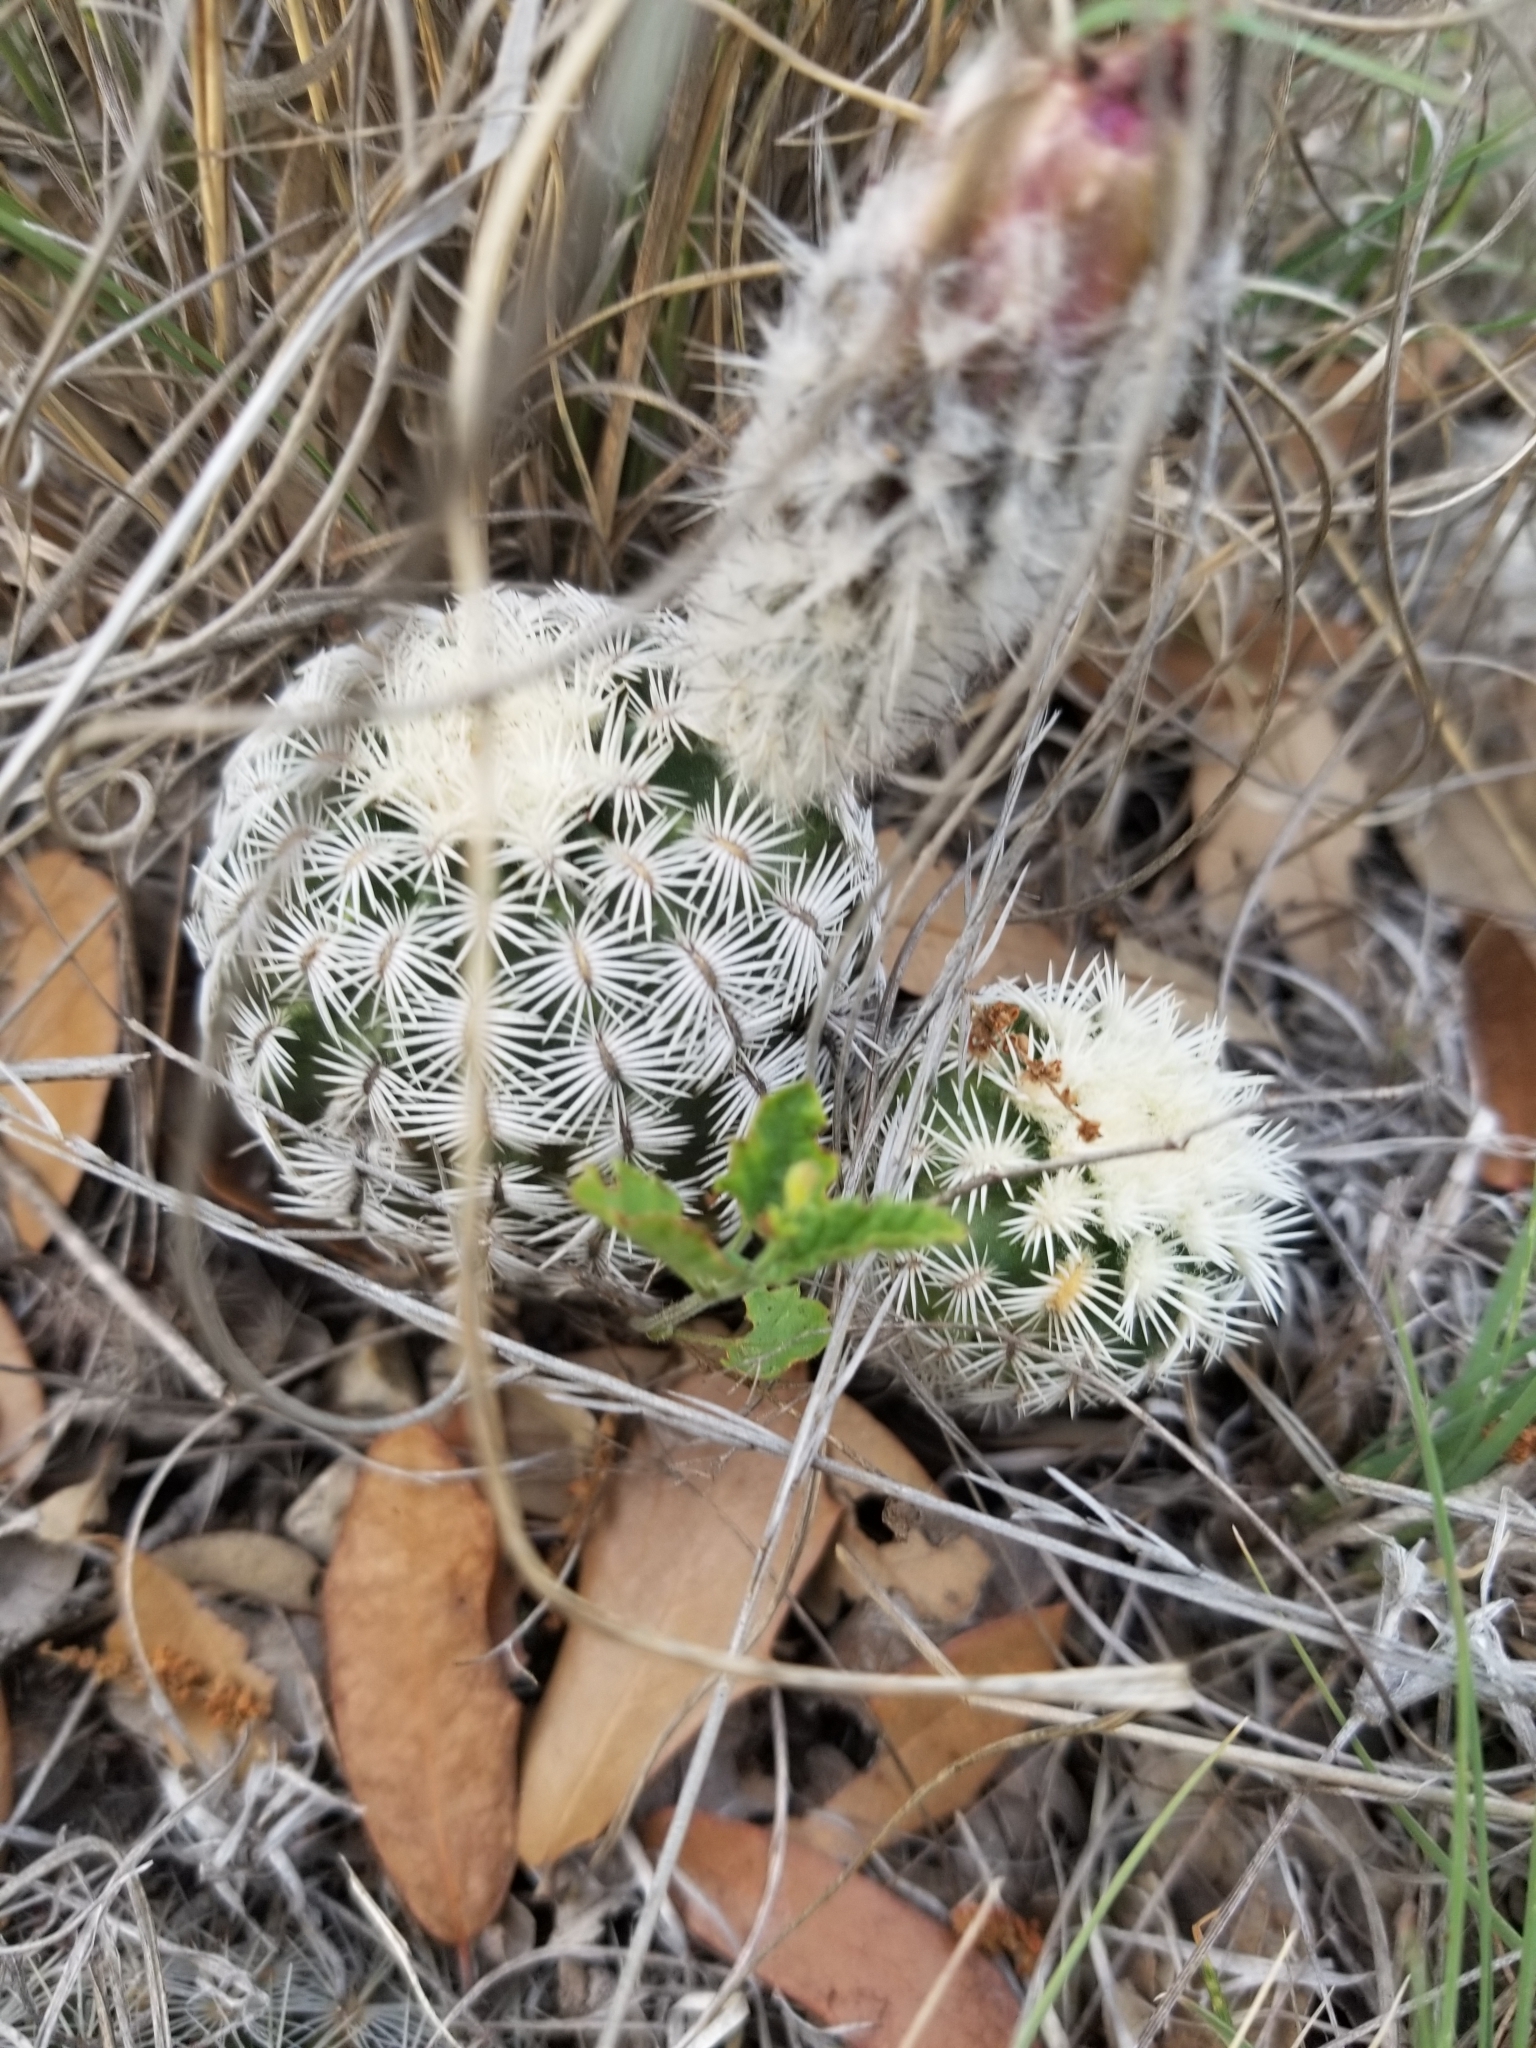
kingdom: Plantae
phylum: Tracheophyta
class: Magnoliopsida
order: Caryophyllales
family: Cactaceae
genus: Echinocereus
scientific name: Echinocereus reichenbachii
